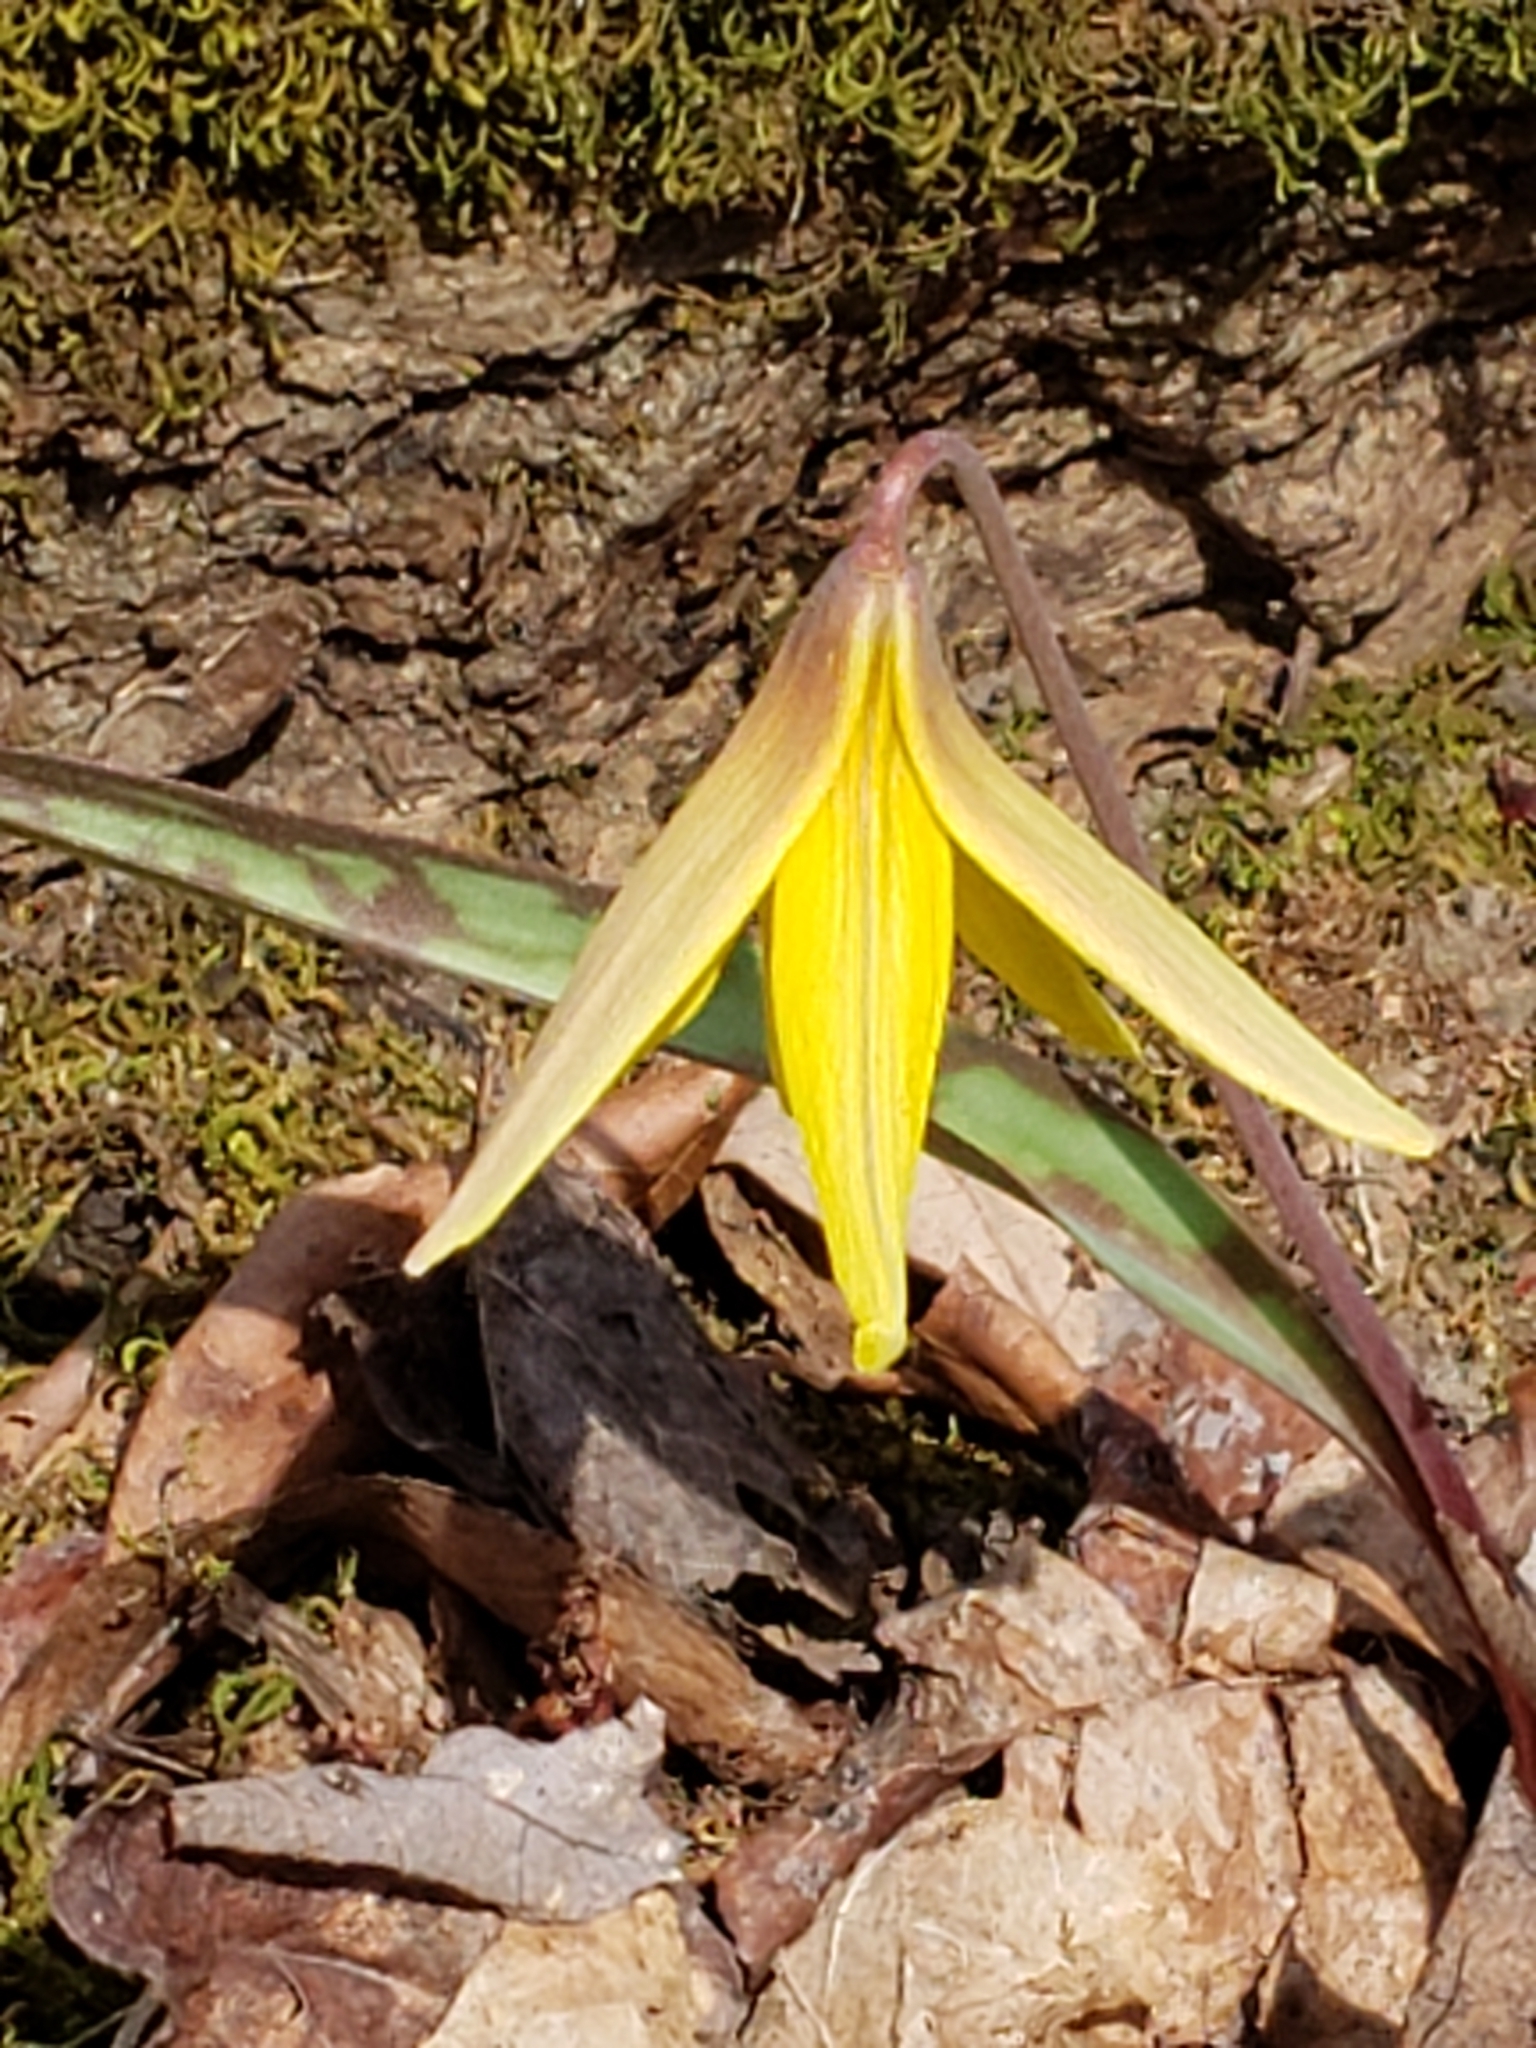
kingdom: Plantae
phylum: Tracheophyta
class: Liliopsida
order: Liliales
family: Liliaceae
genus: Erythronium
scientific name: Erythronium americanum
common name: Yellow adder's-tongue
